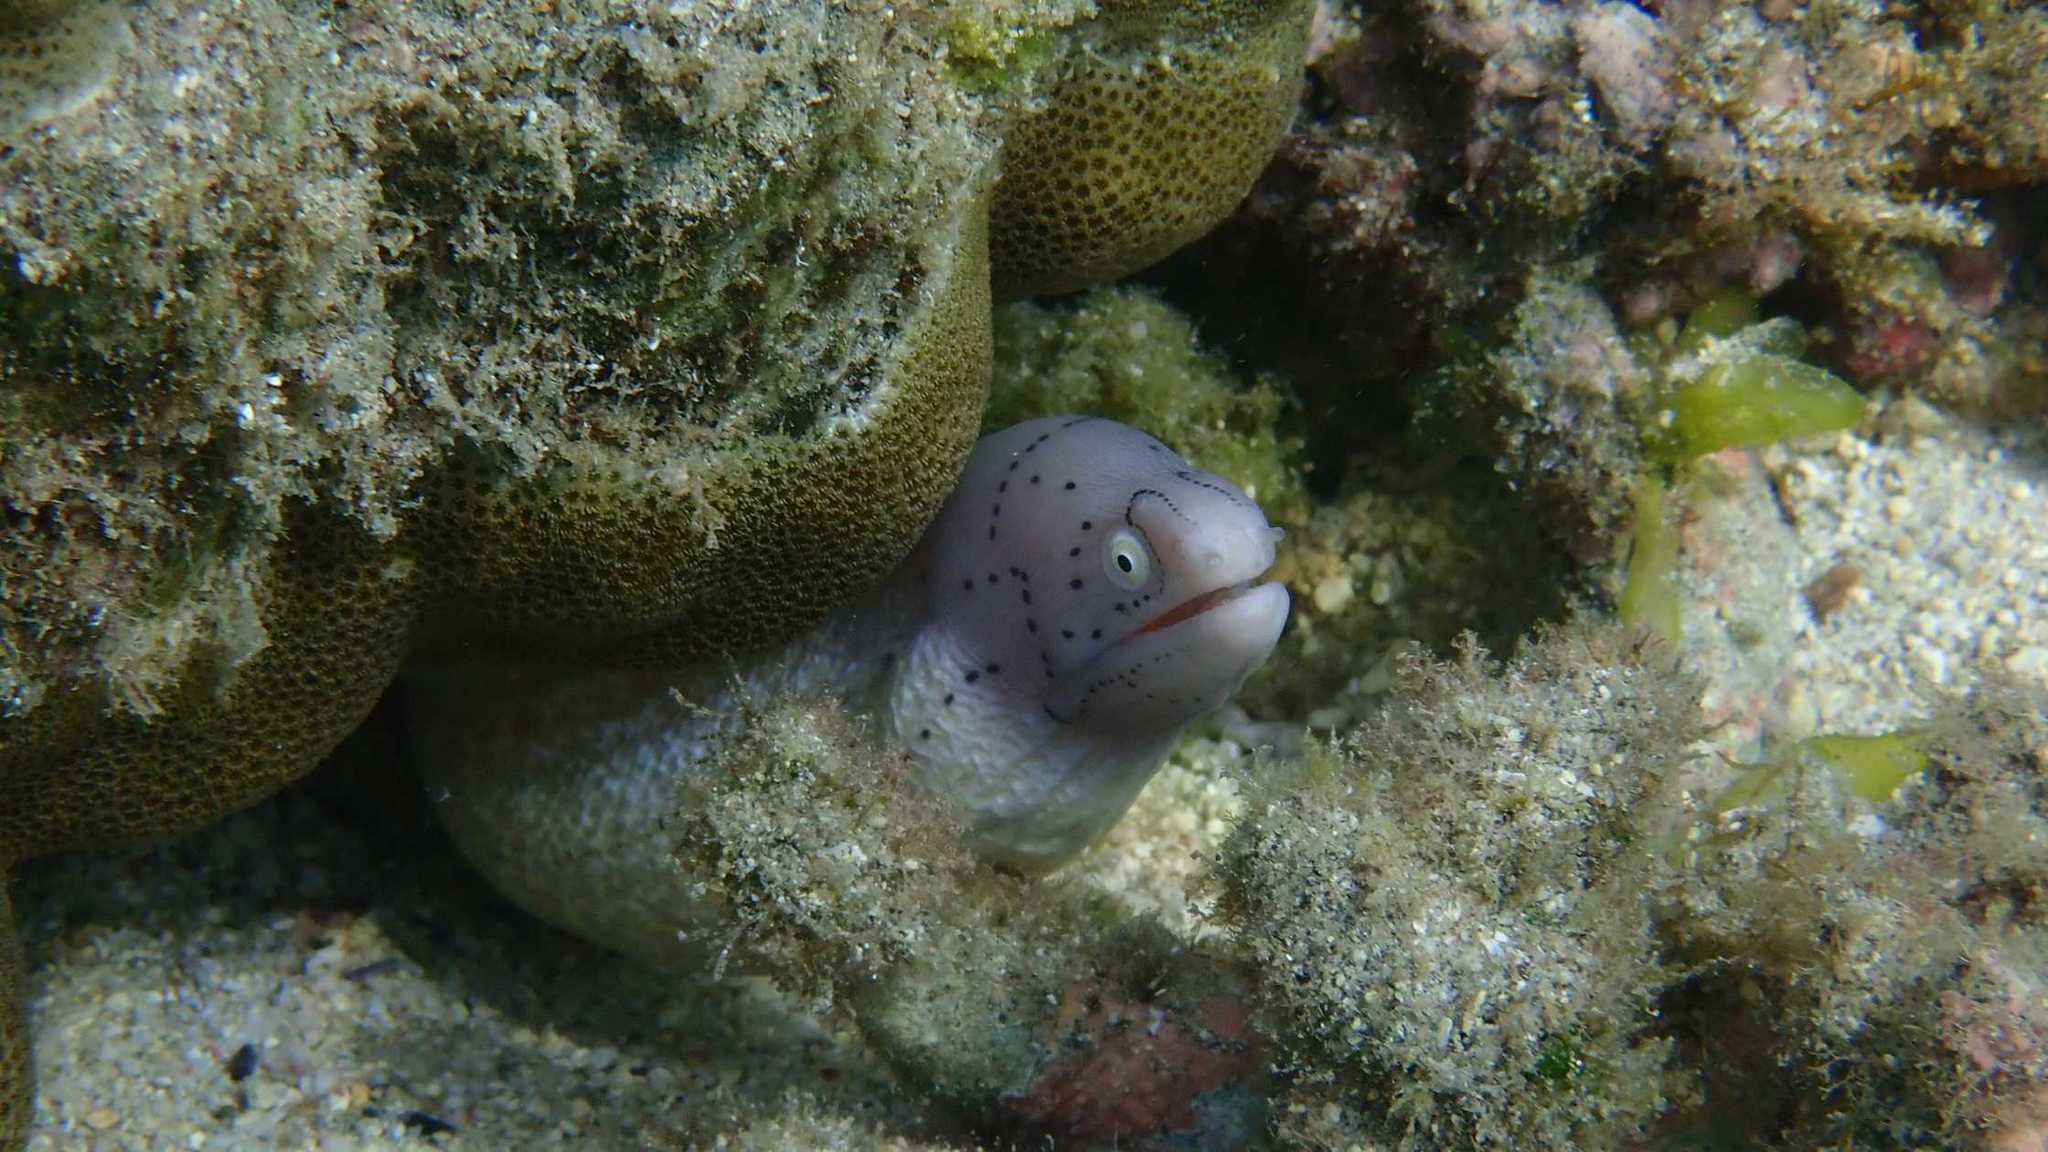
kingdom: Animalia
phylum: Chordata
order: Anguilliformes
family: Muraenidae
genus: Gymnothorax
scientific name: Gymnothorax griseus
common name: Geometric moray
